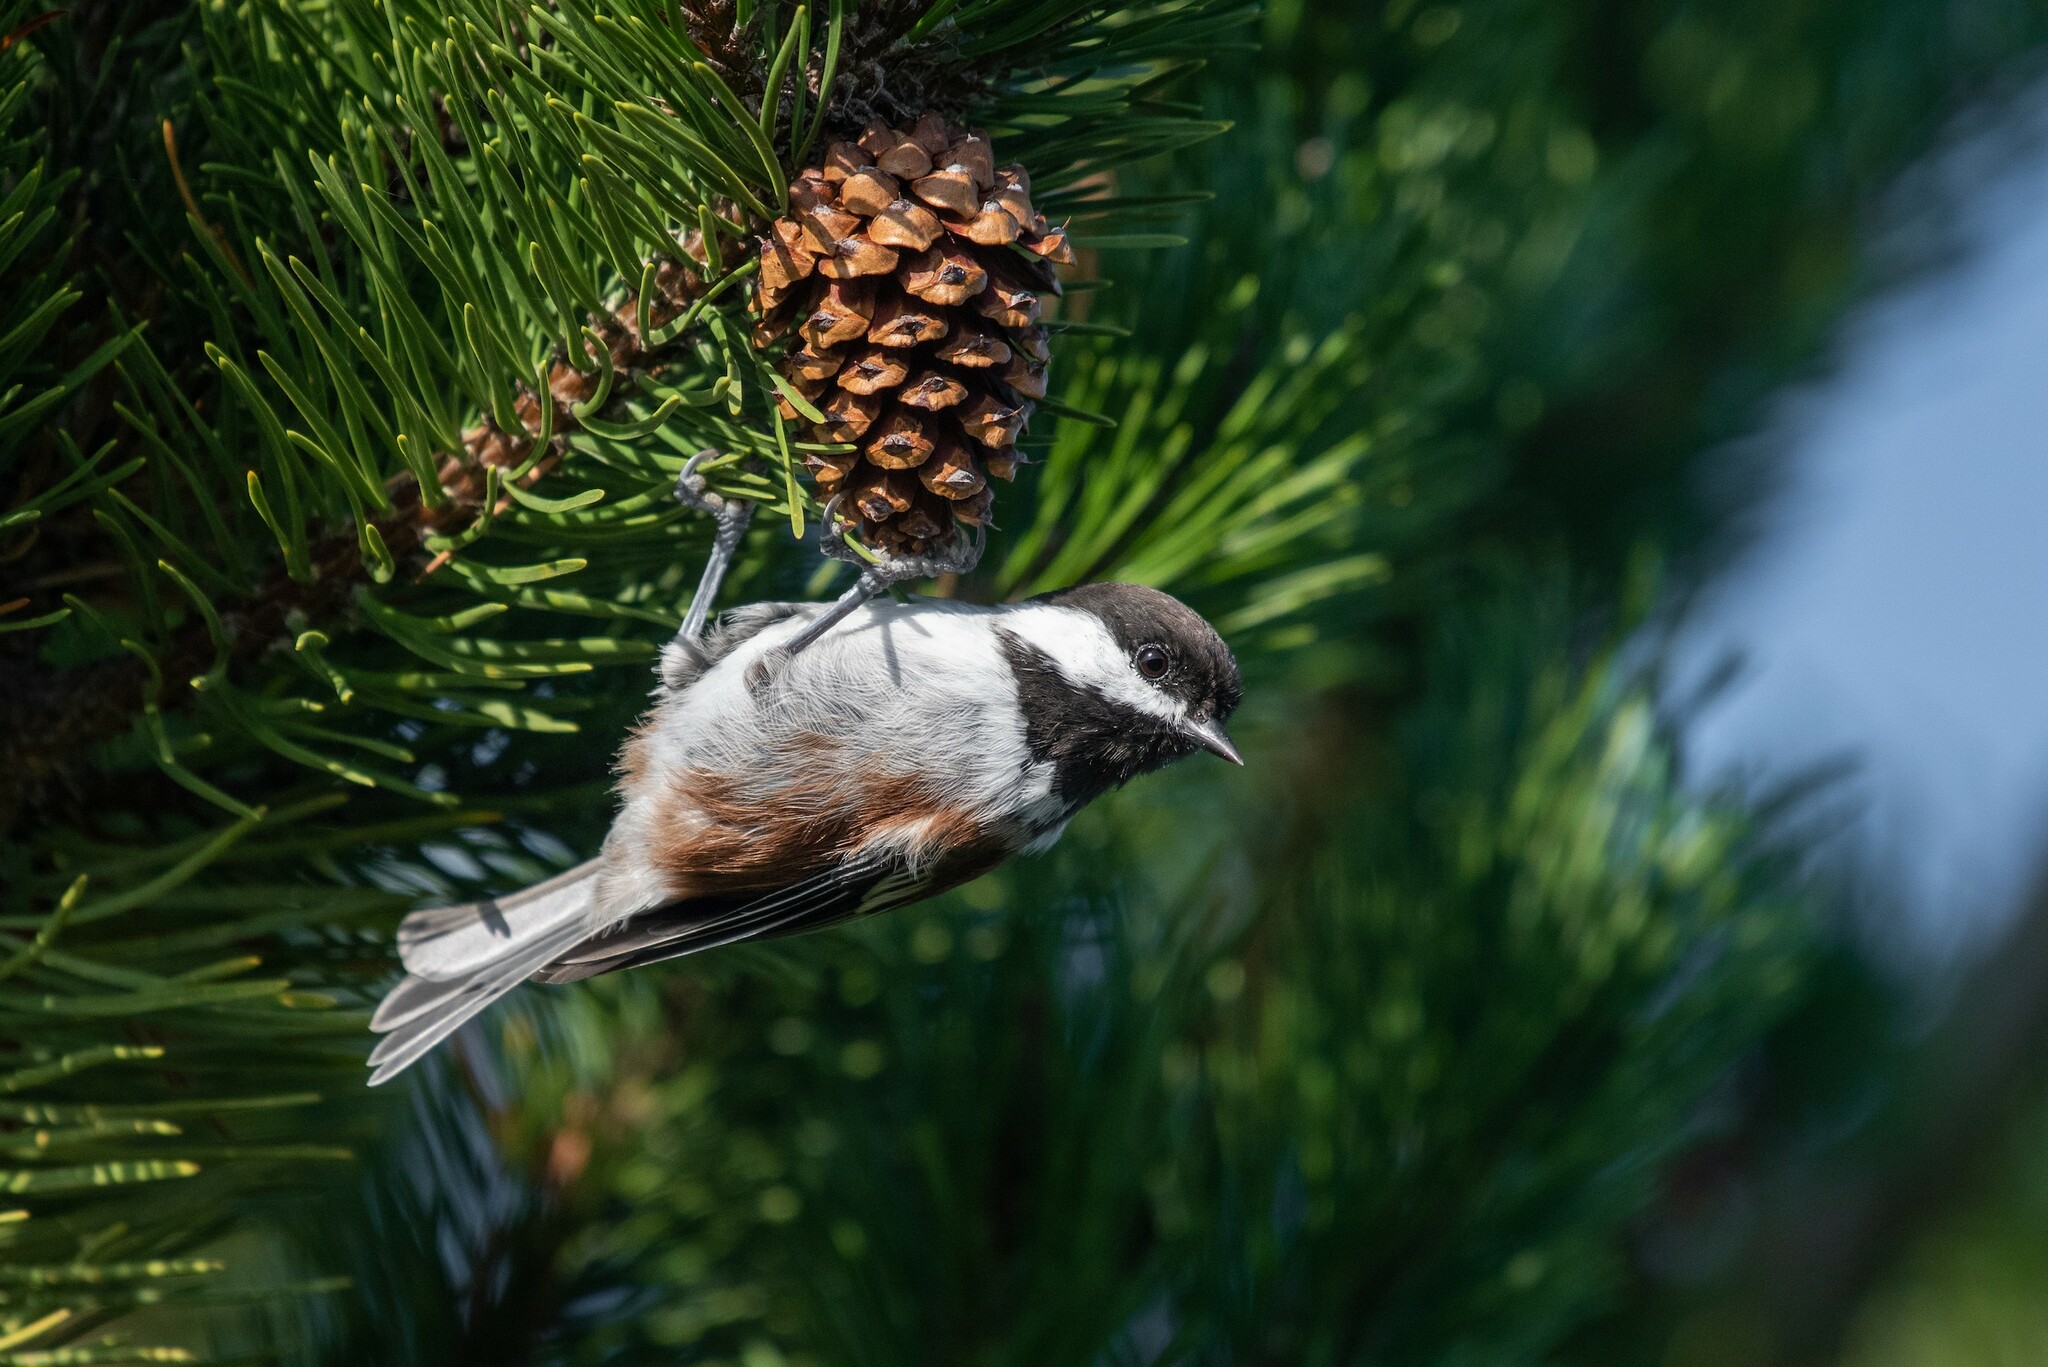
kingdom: Animalia
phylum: Chordata
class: Aves
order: Passeriformes
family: Paridae
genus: Poecile
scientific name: Poecile rufescens
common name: Chestnut-backed chickadee
